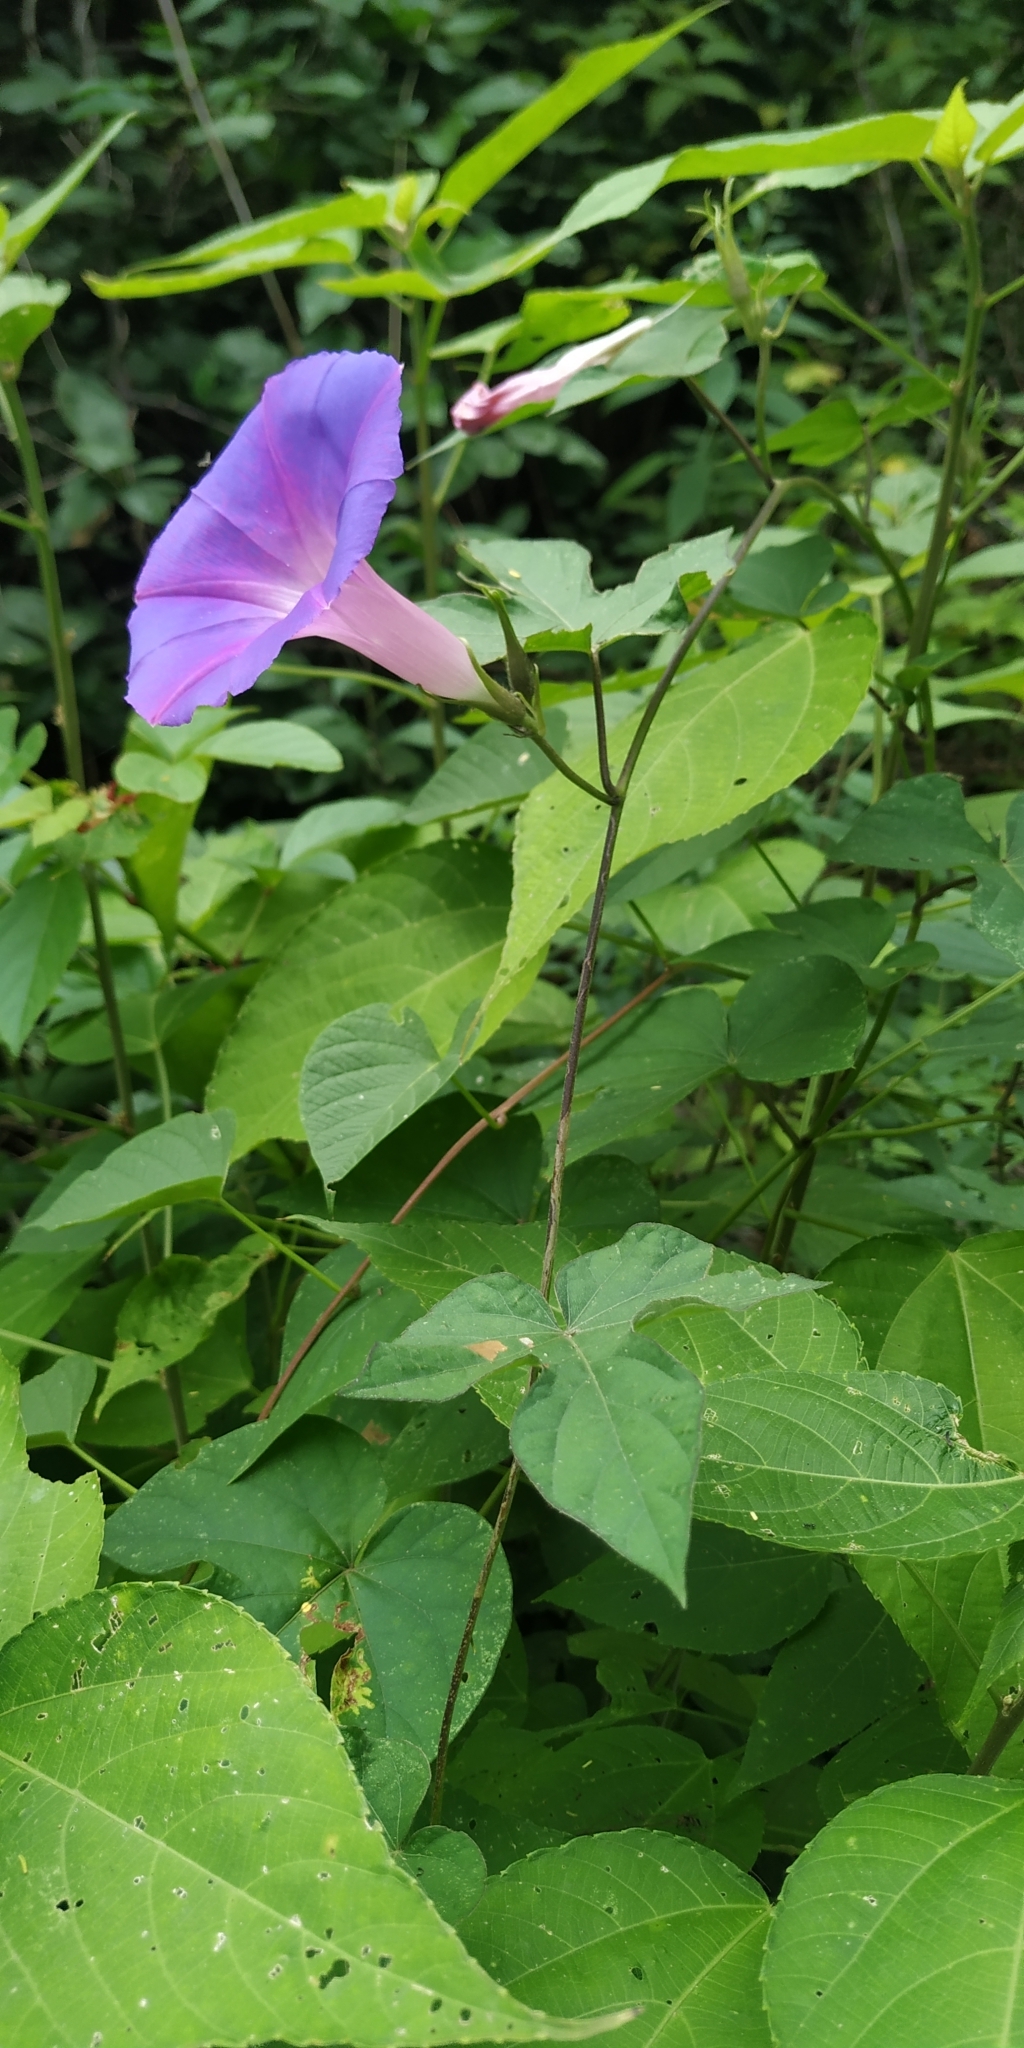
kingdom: Plantae
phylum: Tracheophyta
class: Magnoliopsida
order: Solanales
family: Convolvulaceae
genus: Ipomoea
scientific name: Ipomoea indica
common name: Blue dawnflower
